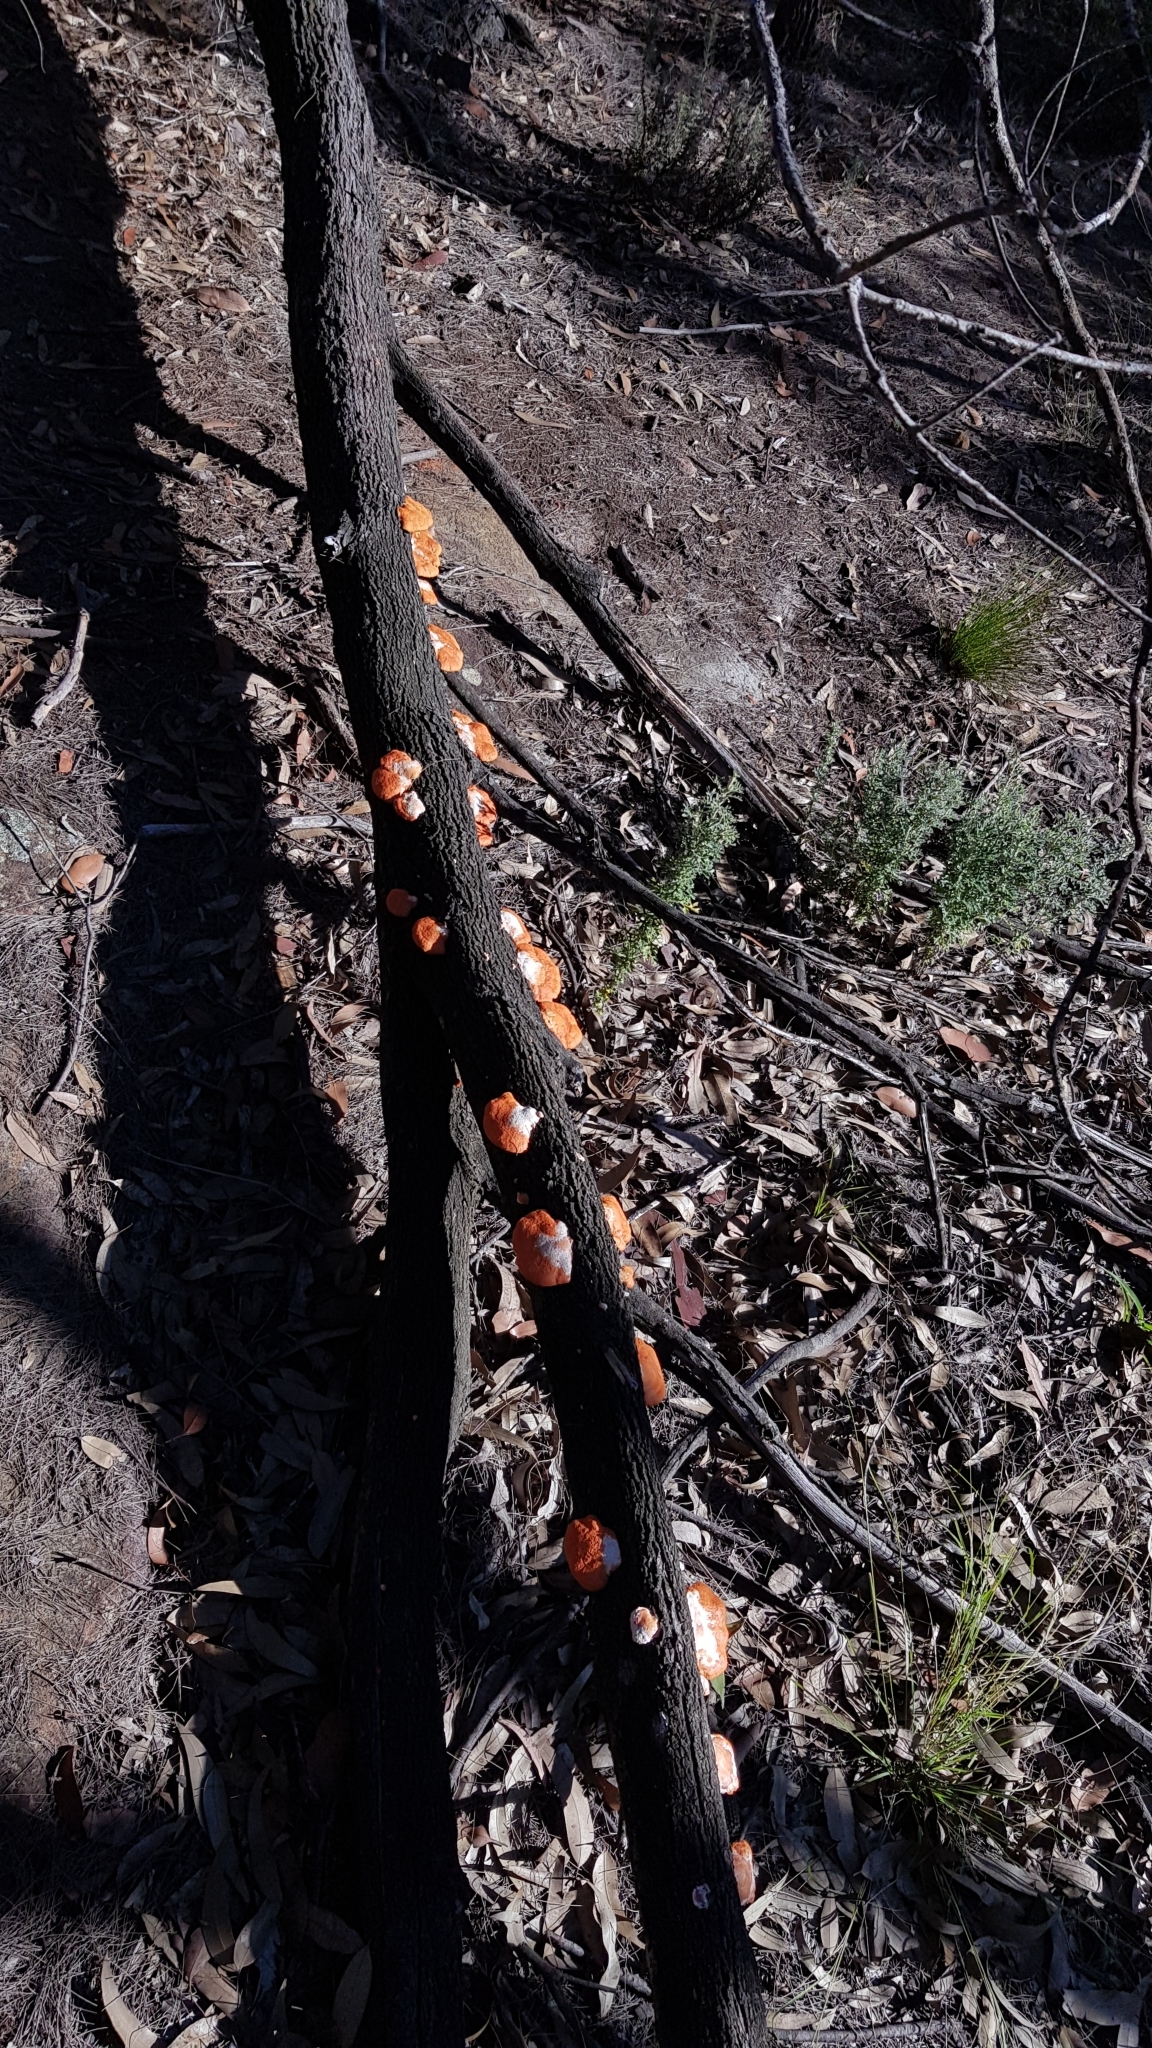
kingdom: Fungi
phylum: Basidiomycota
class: Agaricomycetes
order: Polyporales
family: Polyporaceae
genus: Trametes
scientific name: Trametes coccinea
